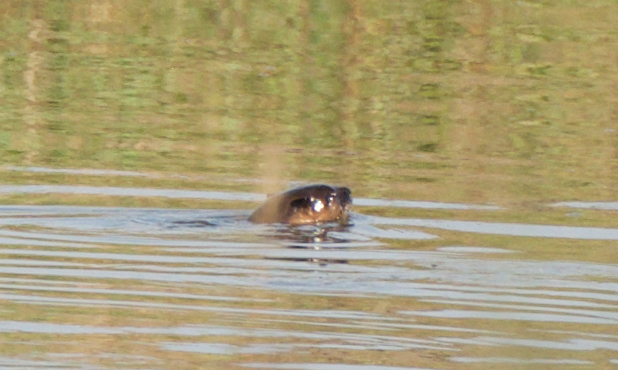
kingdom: Animalia
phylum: Chordata
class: Mammalia
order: Carnivora
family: Mustelidae
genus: Lontra
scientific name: Lontra canadensis
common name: North american river otter
